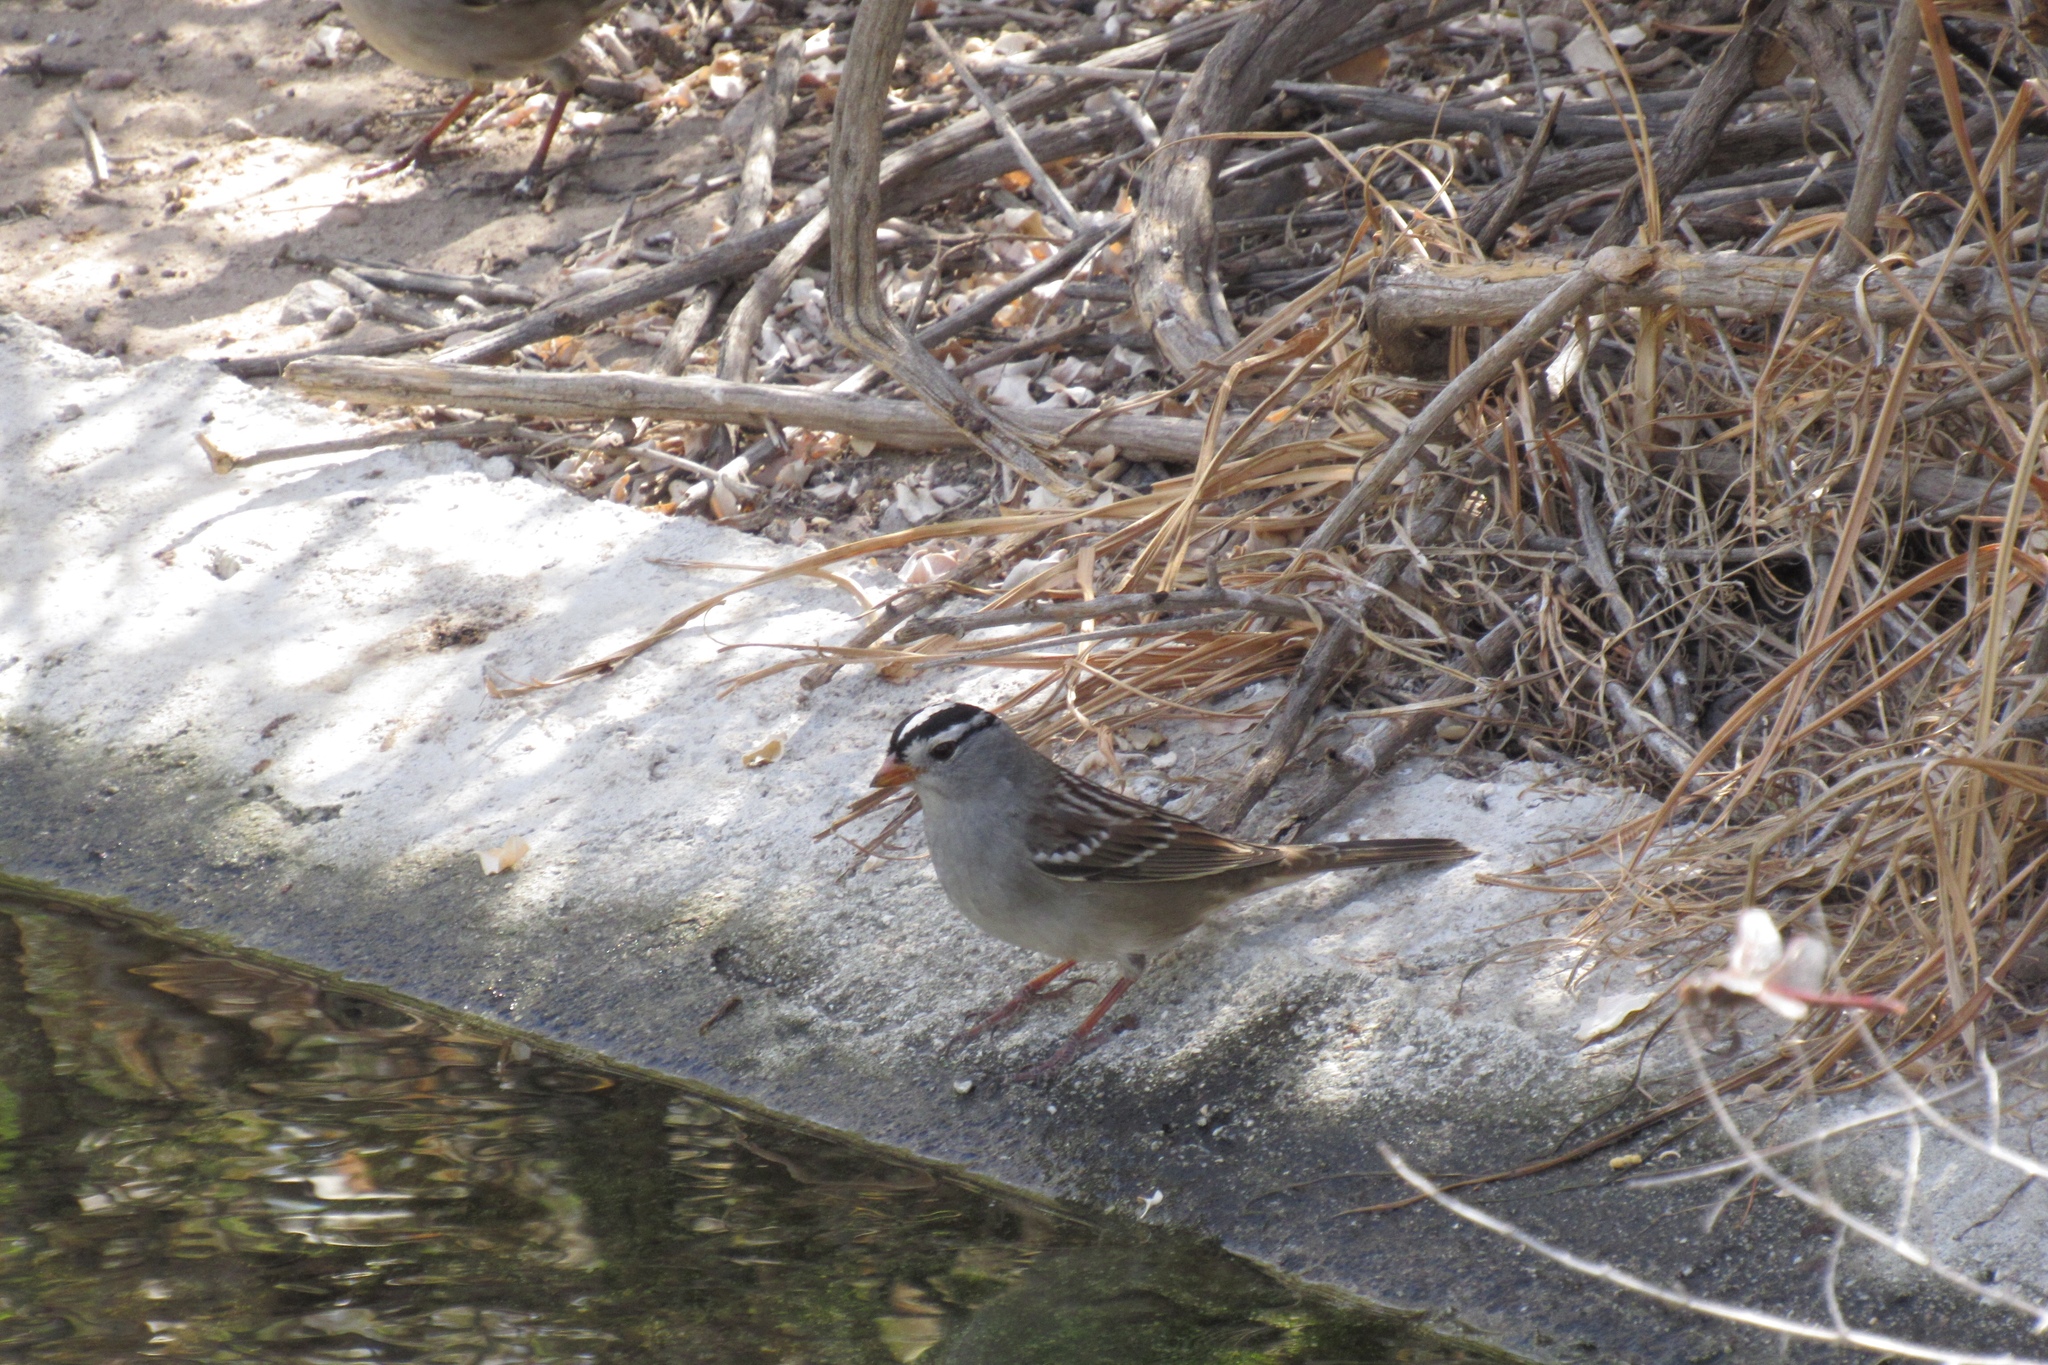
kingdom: Animalia
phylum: Chordata
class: Aves
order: Passeriformes
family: Passerellidae
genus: Zonotrichia
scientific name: Zonotrichia leucophrys
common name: White-crowned sparrow
